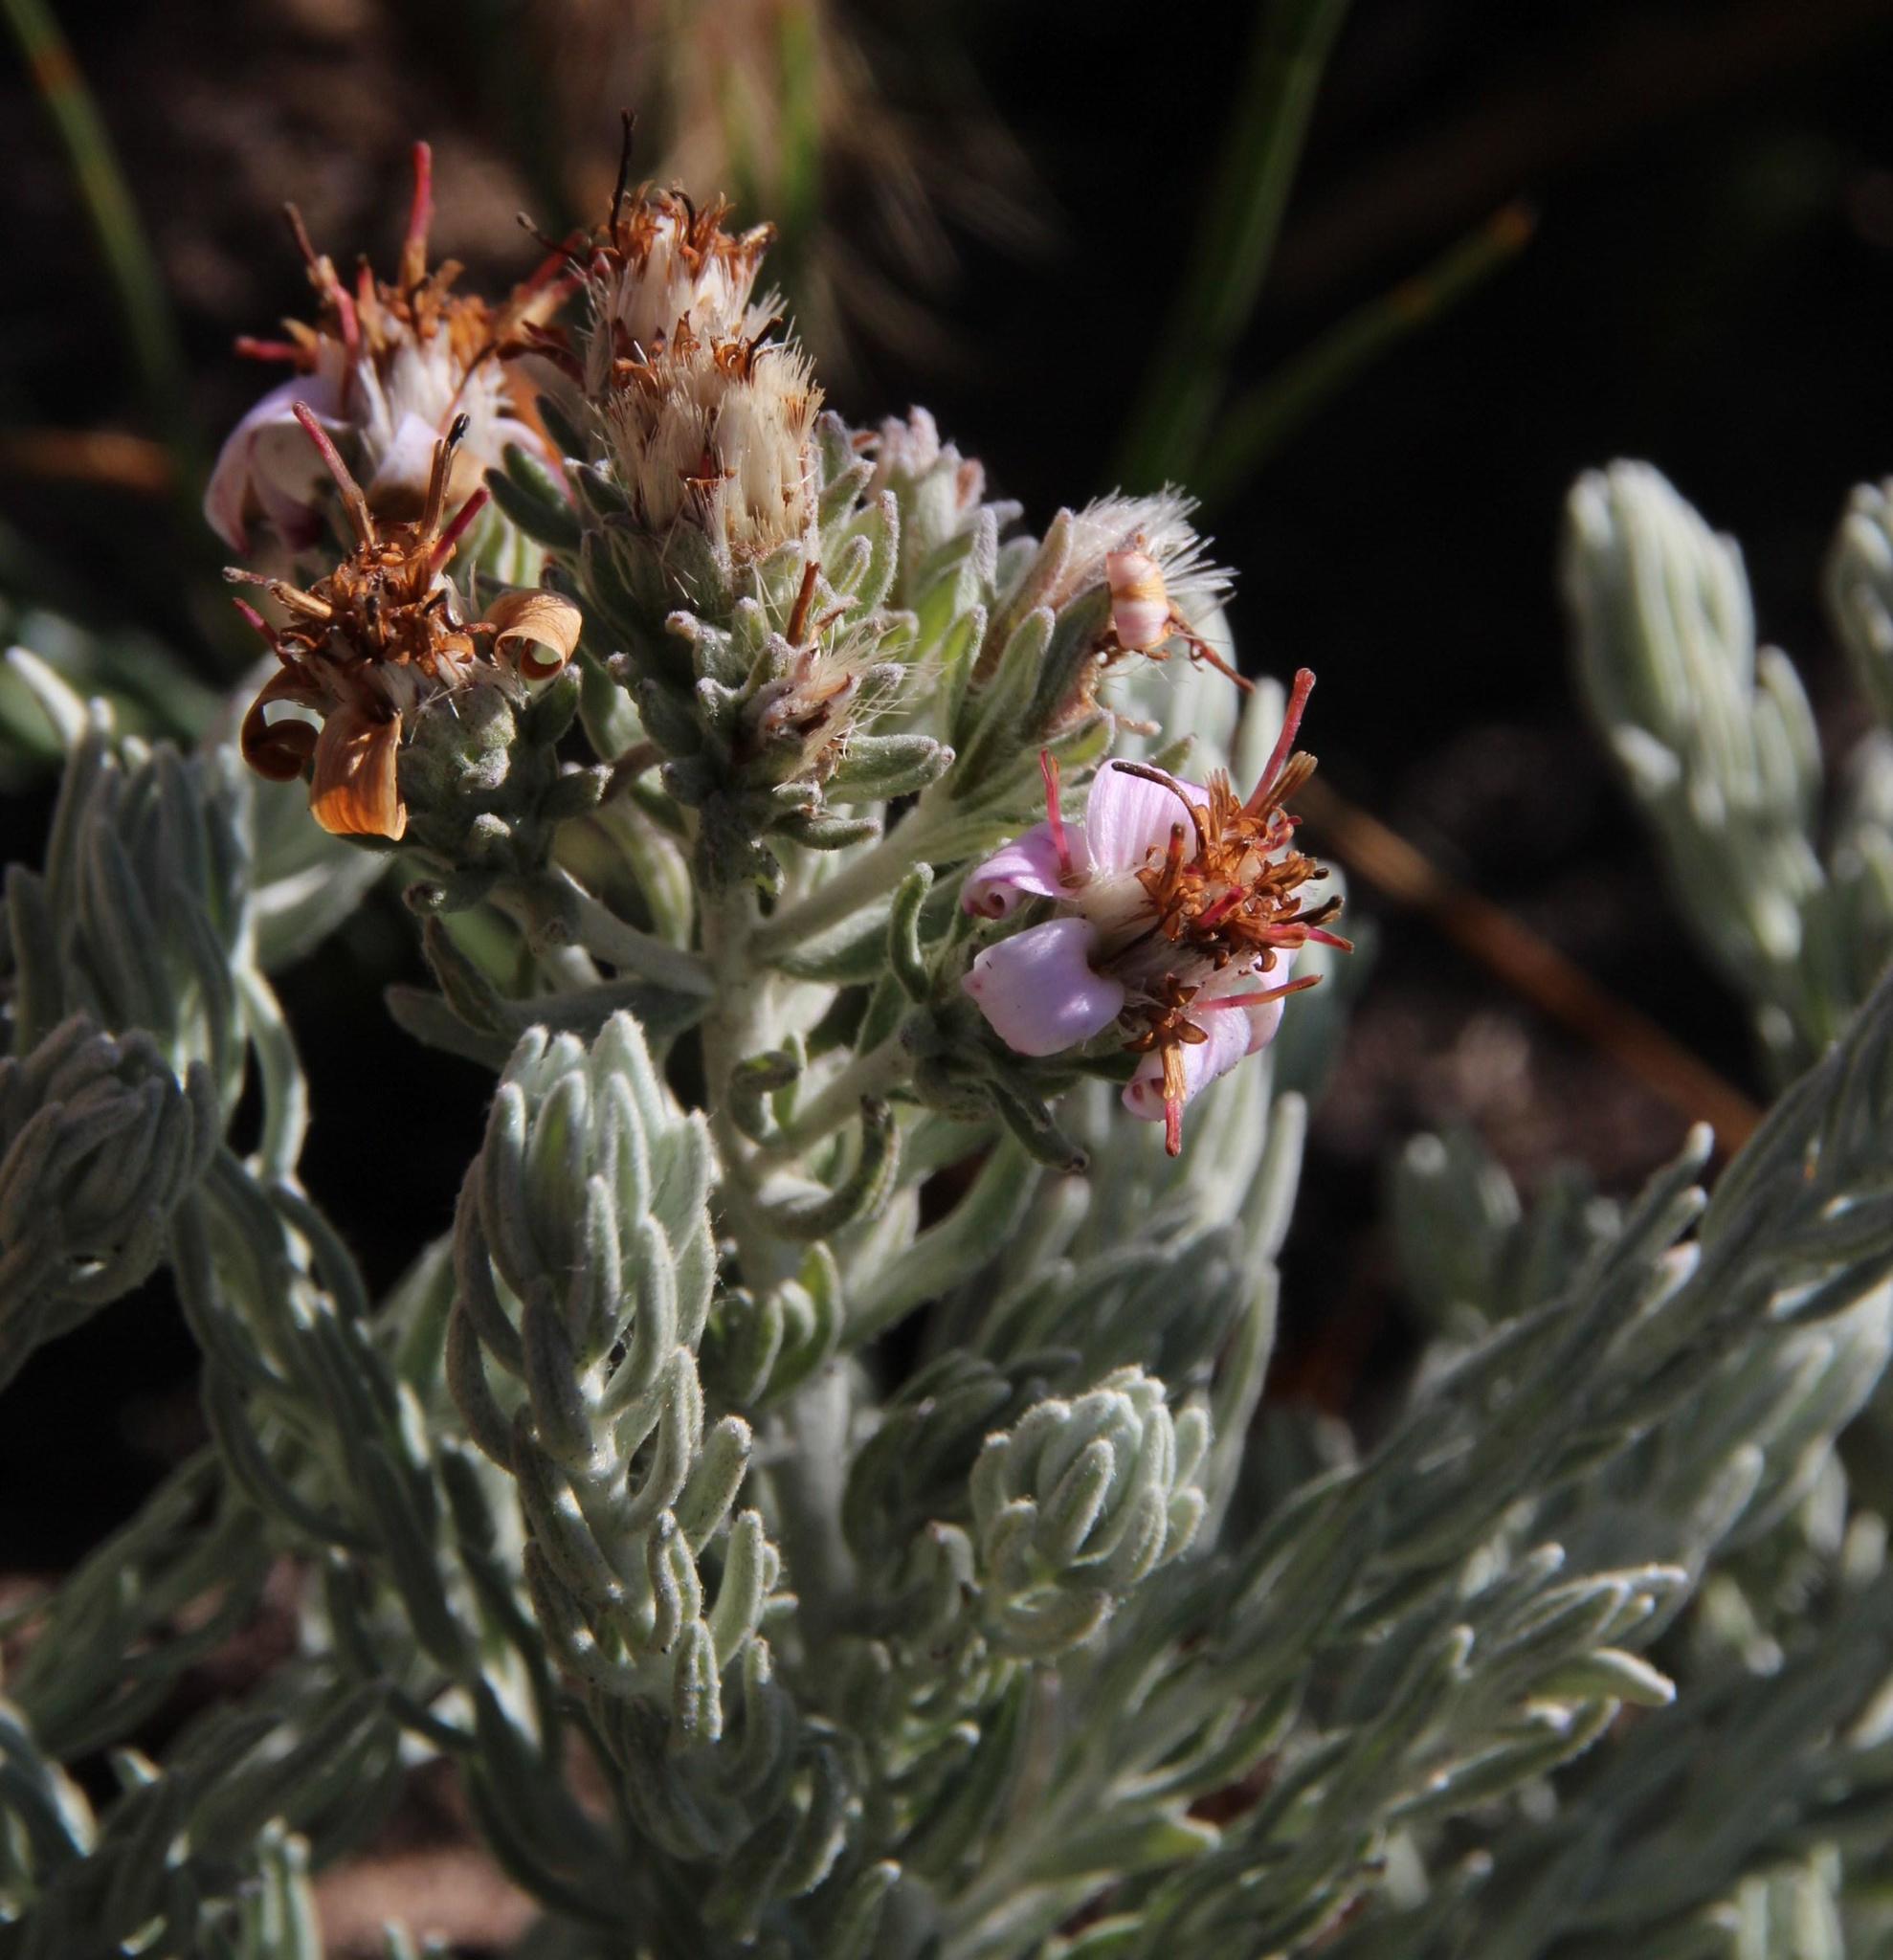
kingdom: Plantae
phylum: Tracheophyta
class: Magnoliopsida
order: Asterales
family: Asteraceae
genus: Printzia
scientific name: Printzia aromatica
